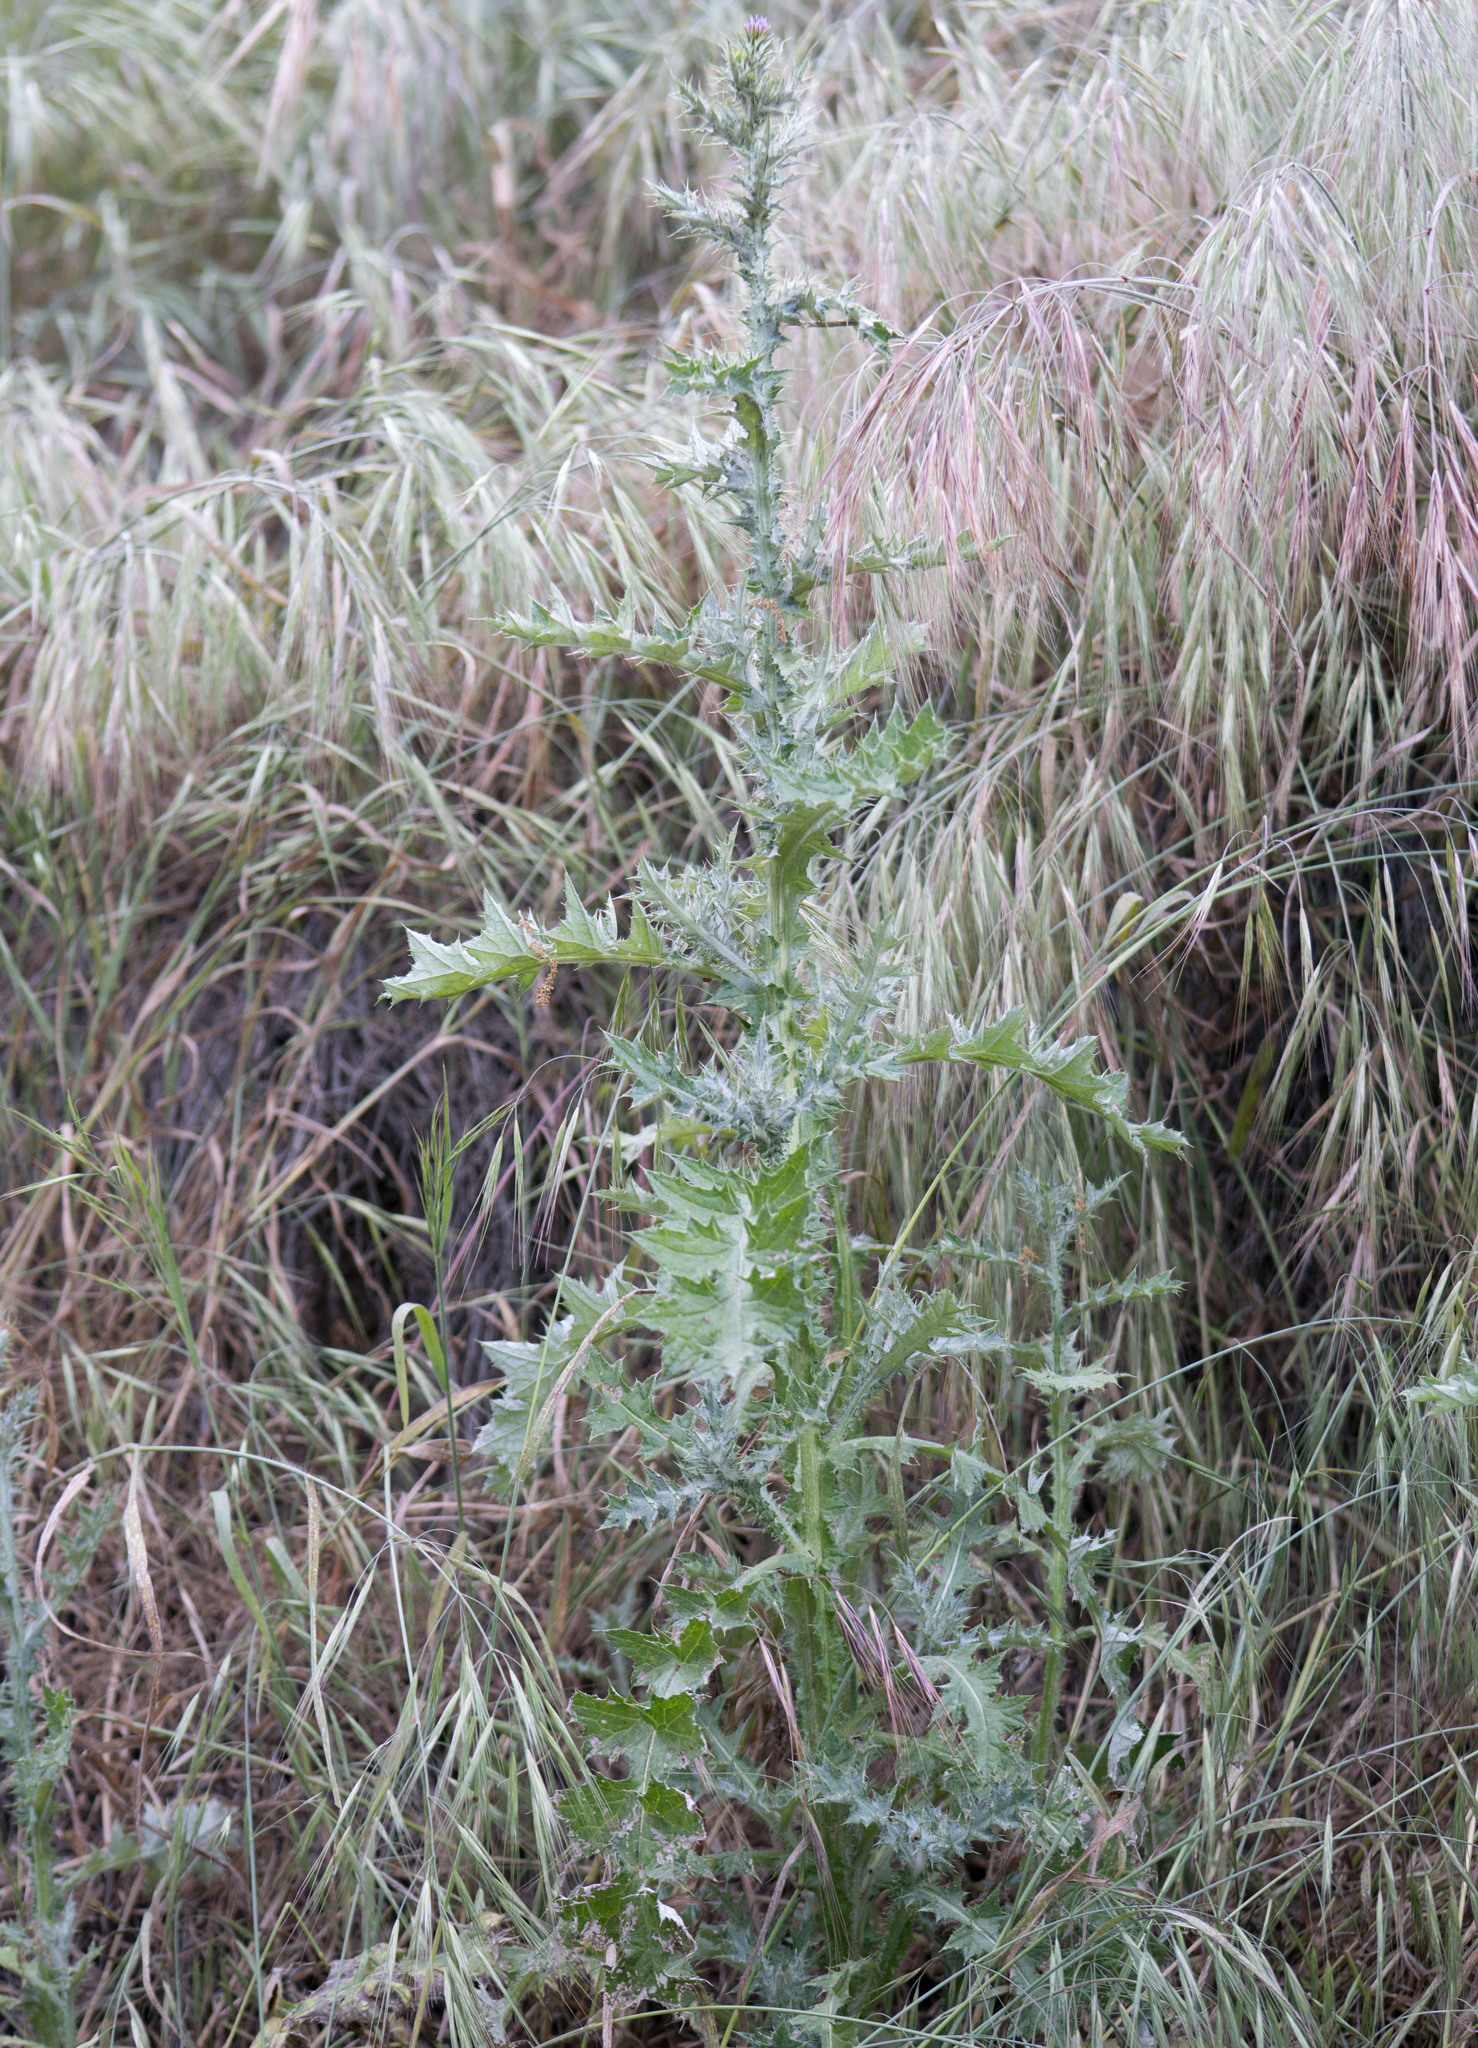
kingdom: Plantae
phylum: Tracheophyta
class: Magnoliopsida
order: Asterales
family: Asteraceae
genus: Carduus
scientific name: Carduus pycnocephalus
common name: Plymouth thistle
